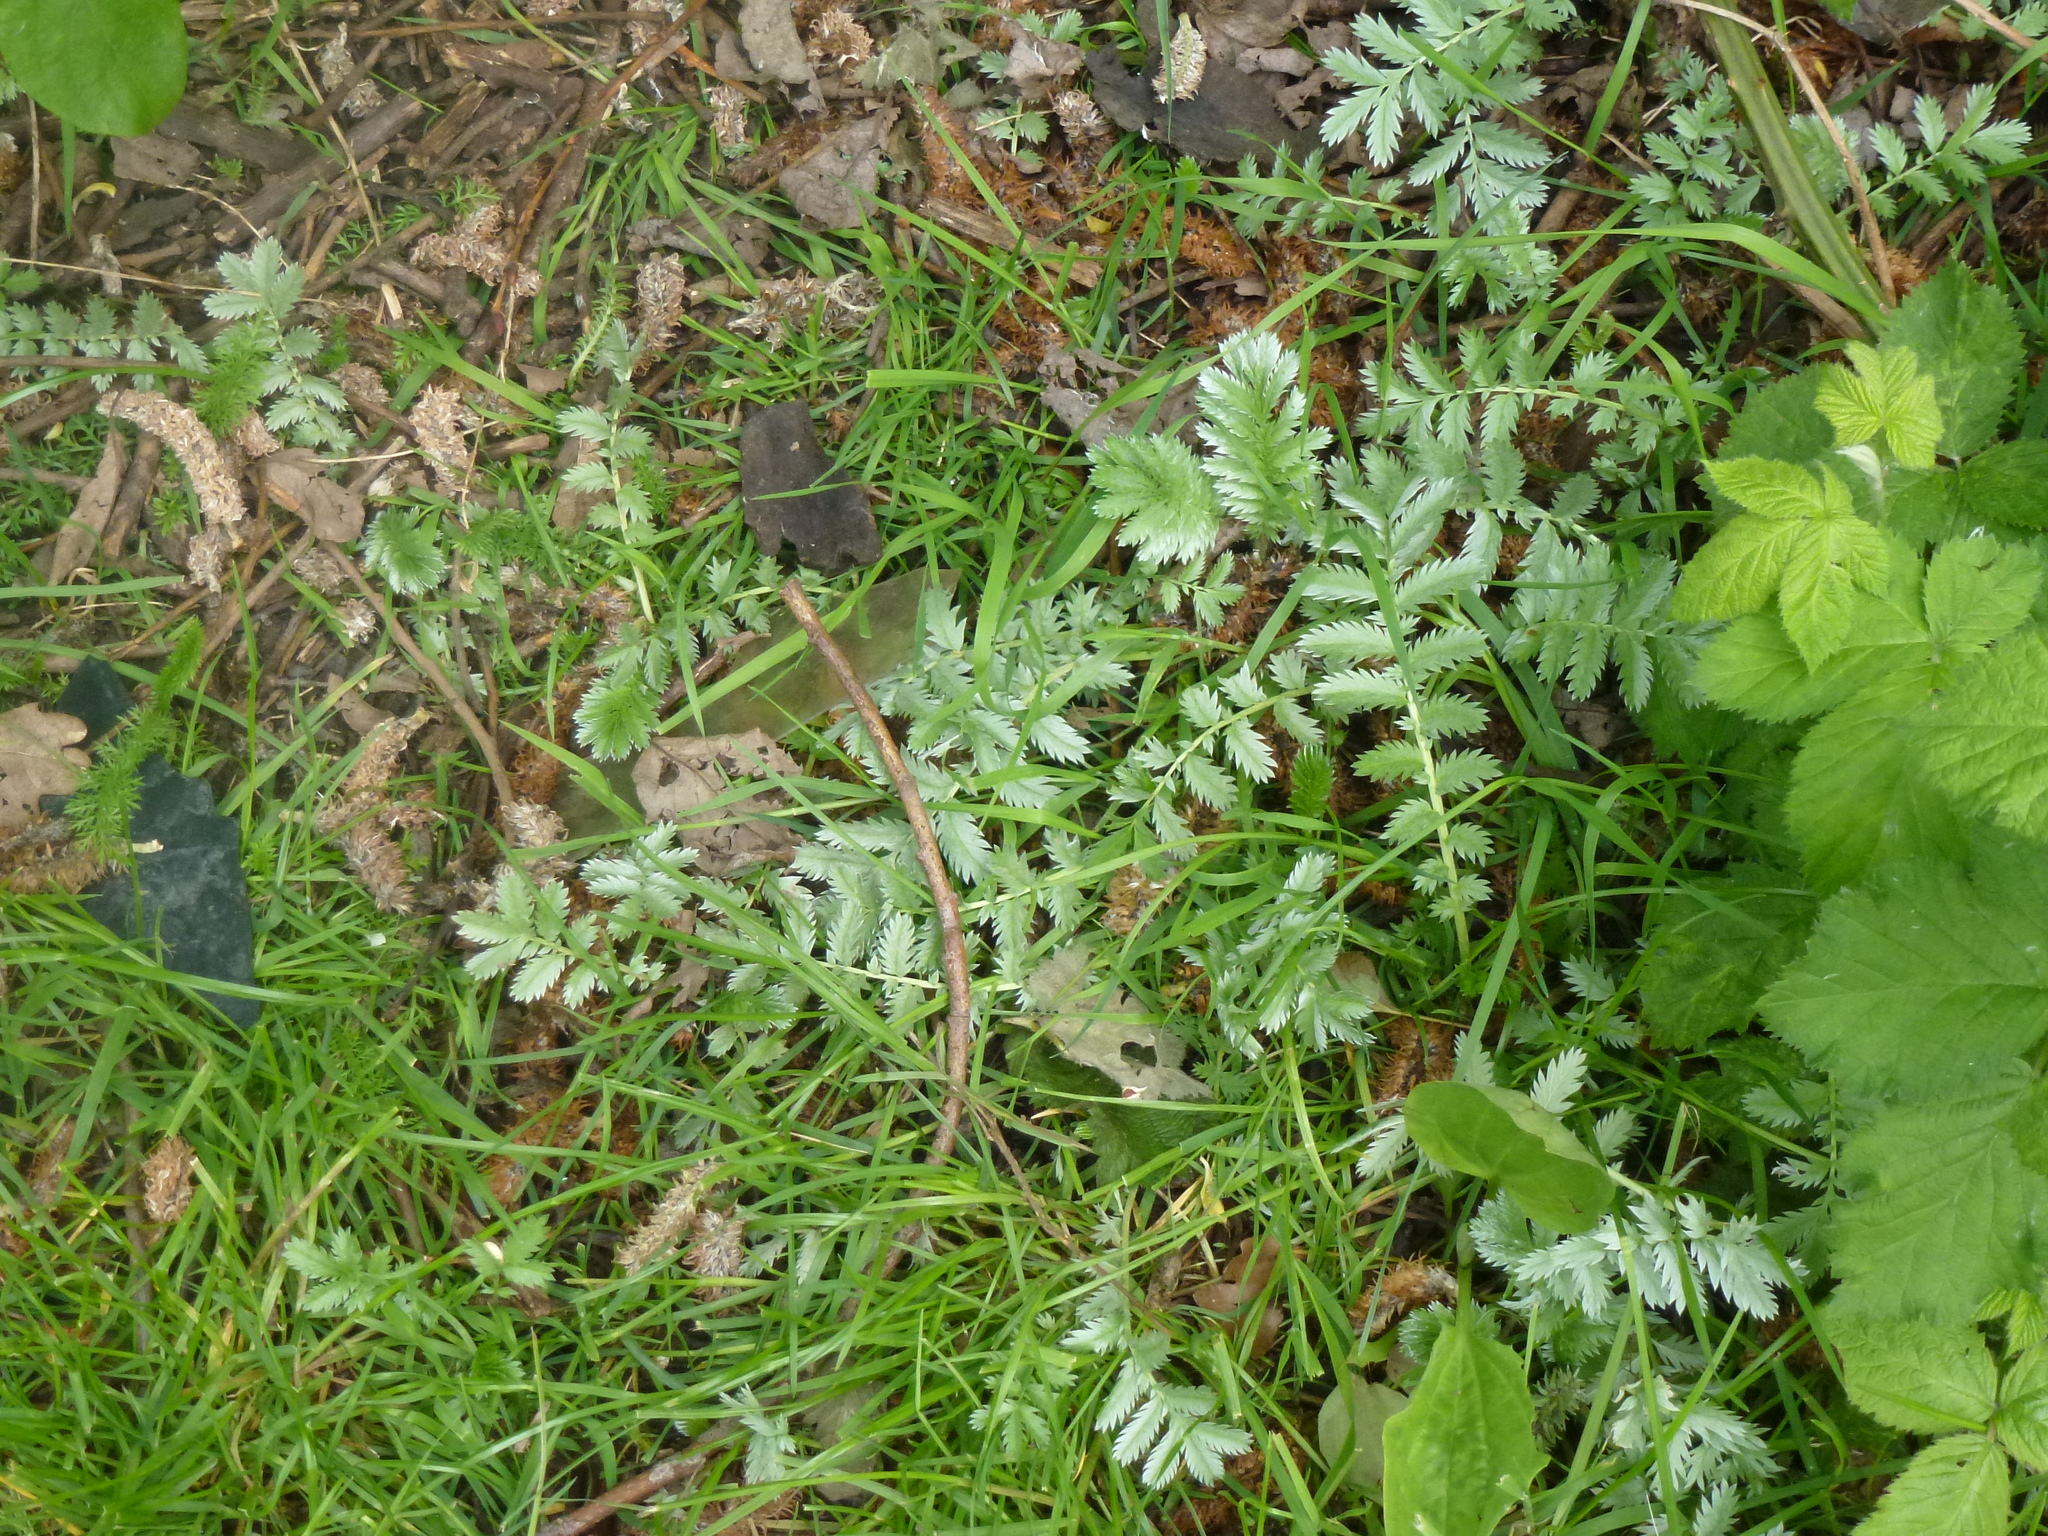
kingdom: Plantae
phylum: Tracheophyta
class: Magnoliopsida
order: Rosales
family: Rosaceae
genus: Argentina
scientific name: Argentina anserina
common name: Common silverweed
